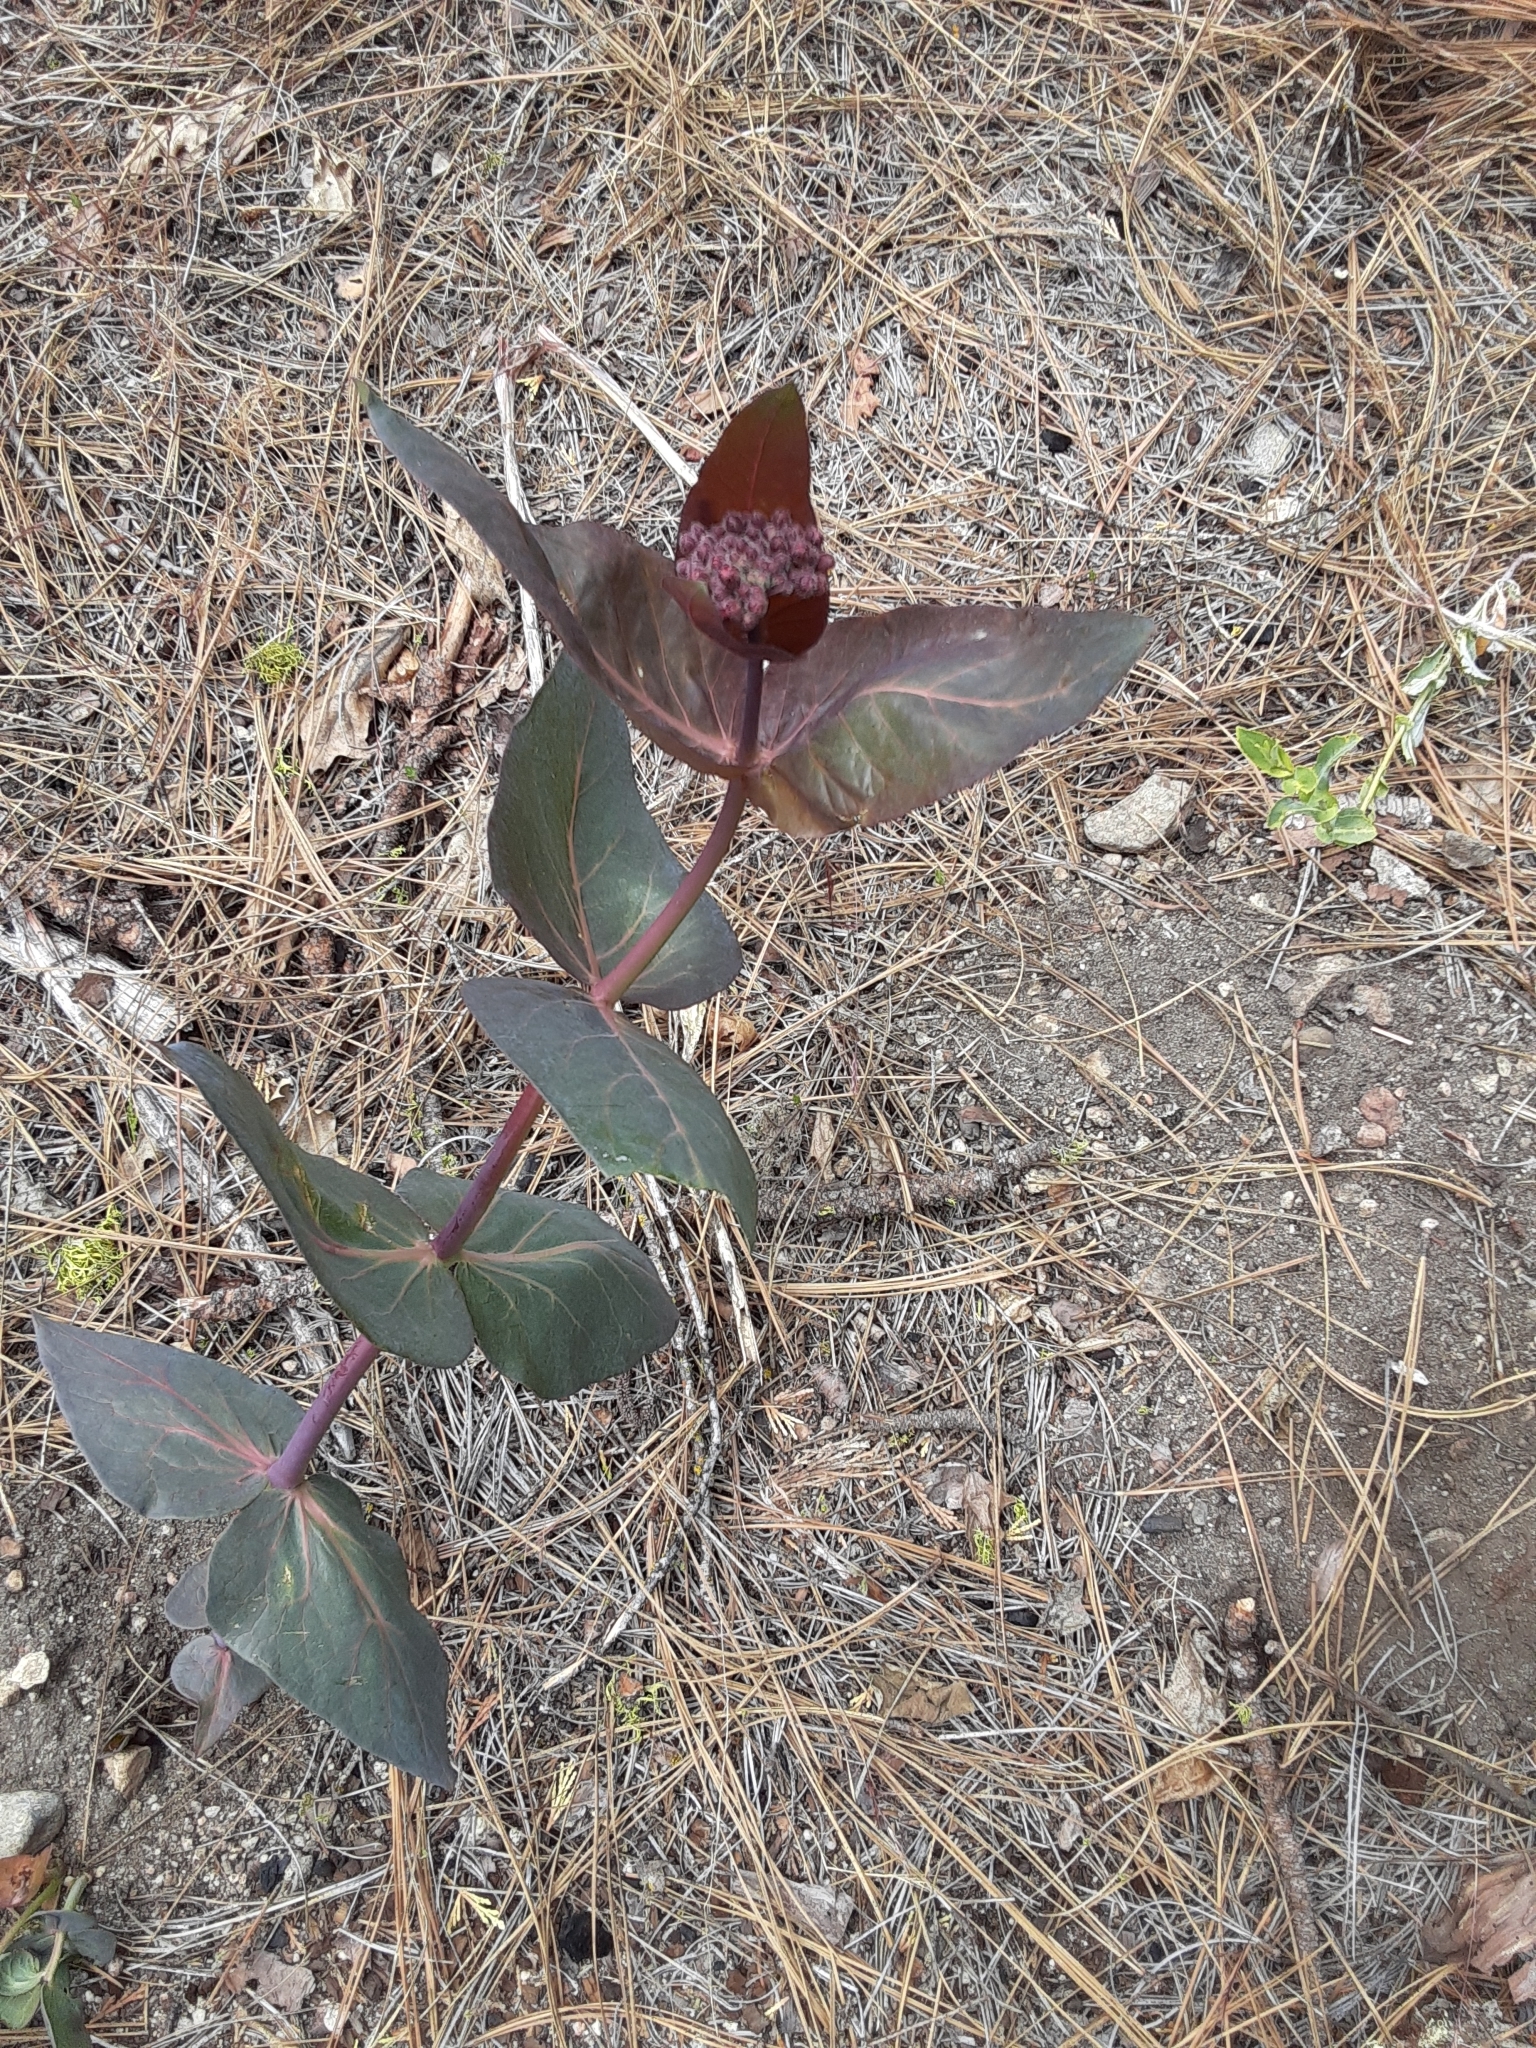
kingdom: Plantae
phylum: Tracheophyta
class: Magnoliopsida
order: Gentianales
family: Apocynaceae
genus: Asclepias
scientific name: Asclepias cordifolia
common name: Purple milkweed
